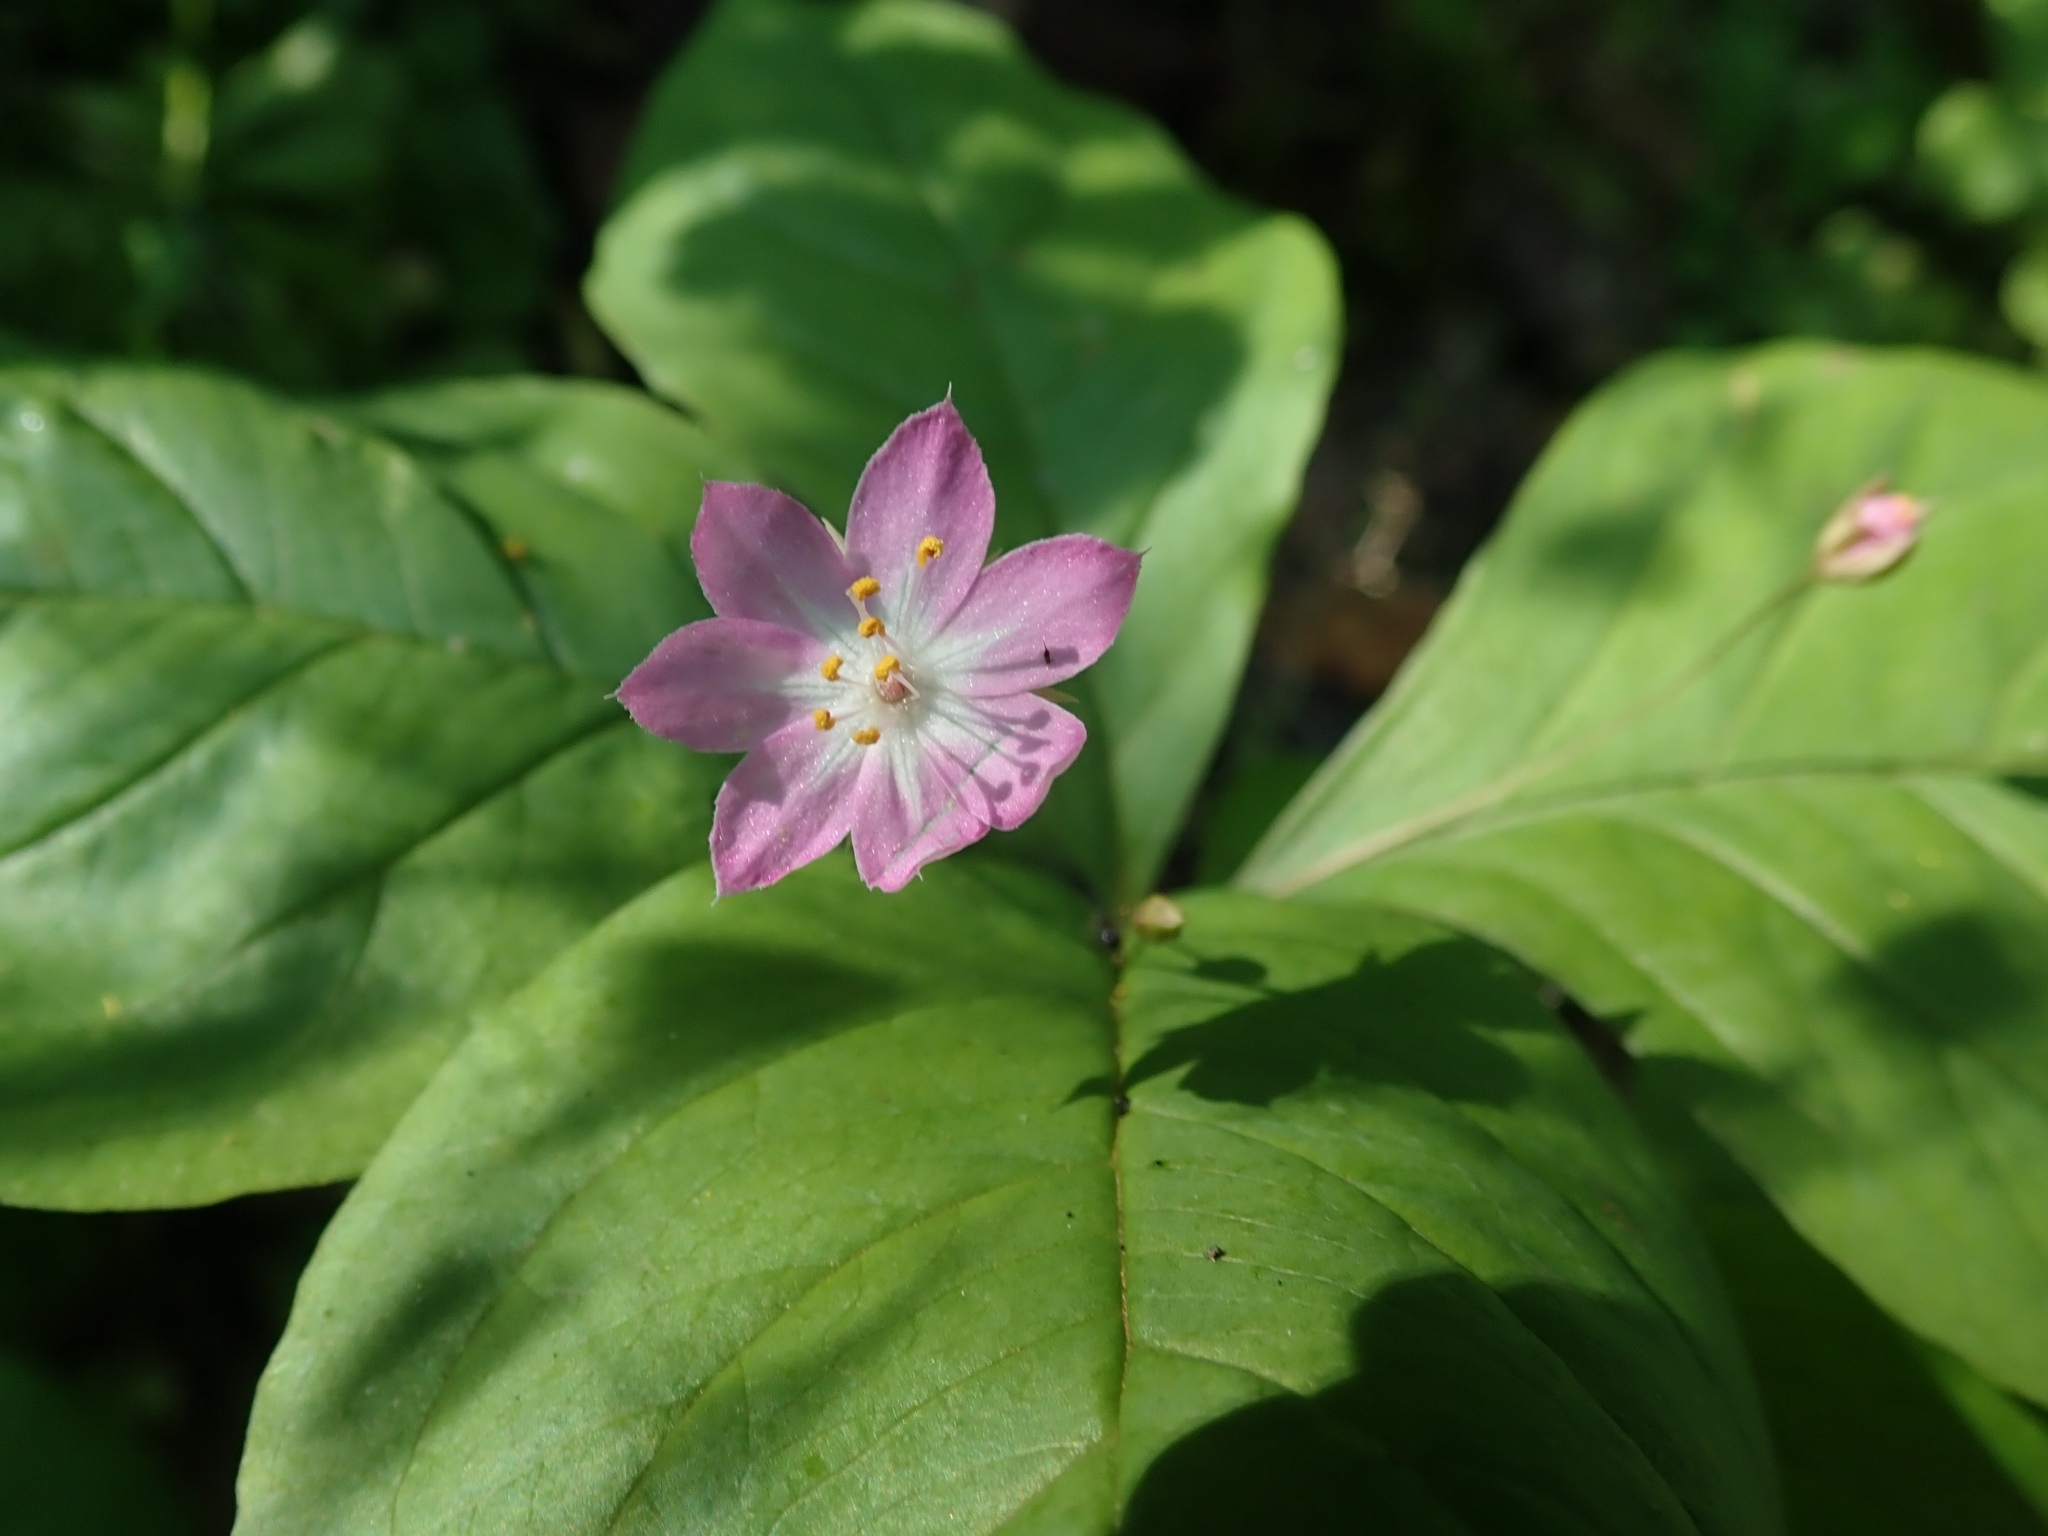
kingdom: Plantae
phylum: Tracheophyta
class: Magnoliopsida
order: Ericales
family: Primulaceae
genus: Lysimachia
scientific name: Lysimachia latifolia
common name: Pacific starflower
